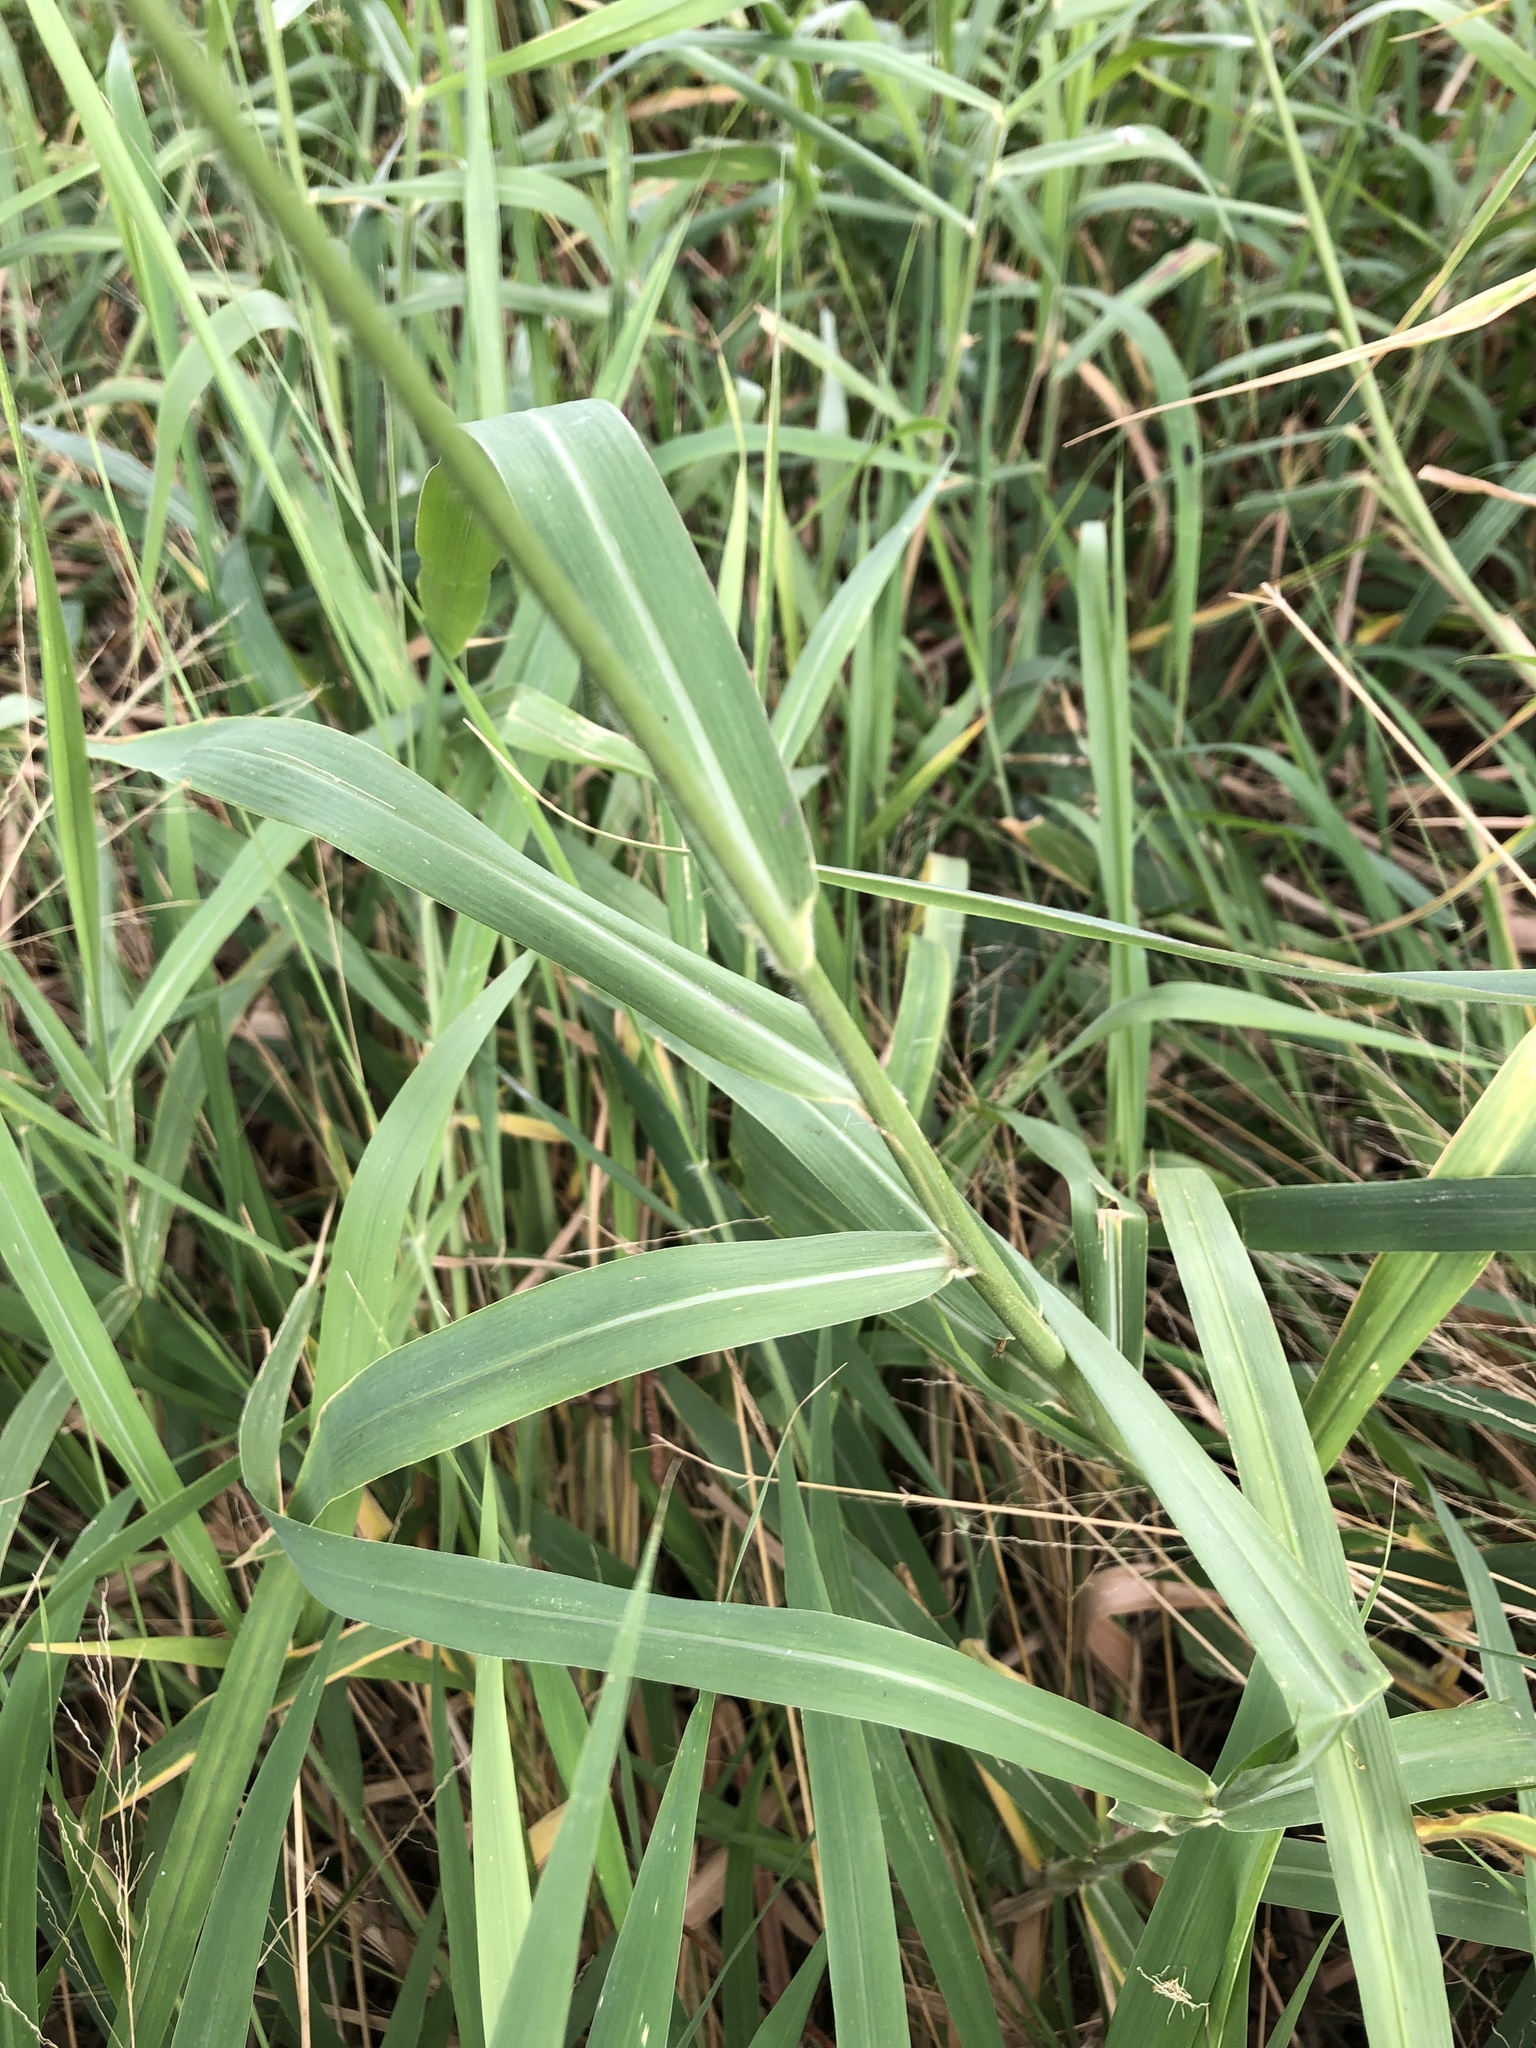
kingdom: Plantae
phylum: Tracheophyta
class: Liliopsida
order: Poales
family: Poaceae
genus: Urochloa
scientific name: Urochloa mutica
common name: Para grass
